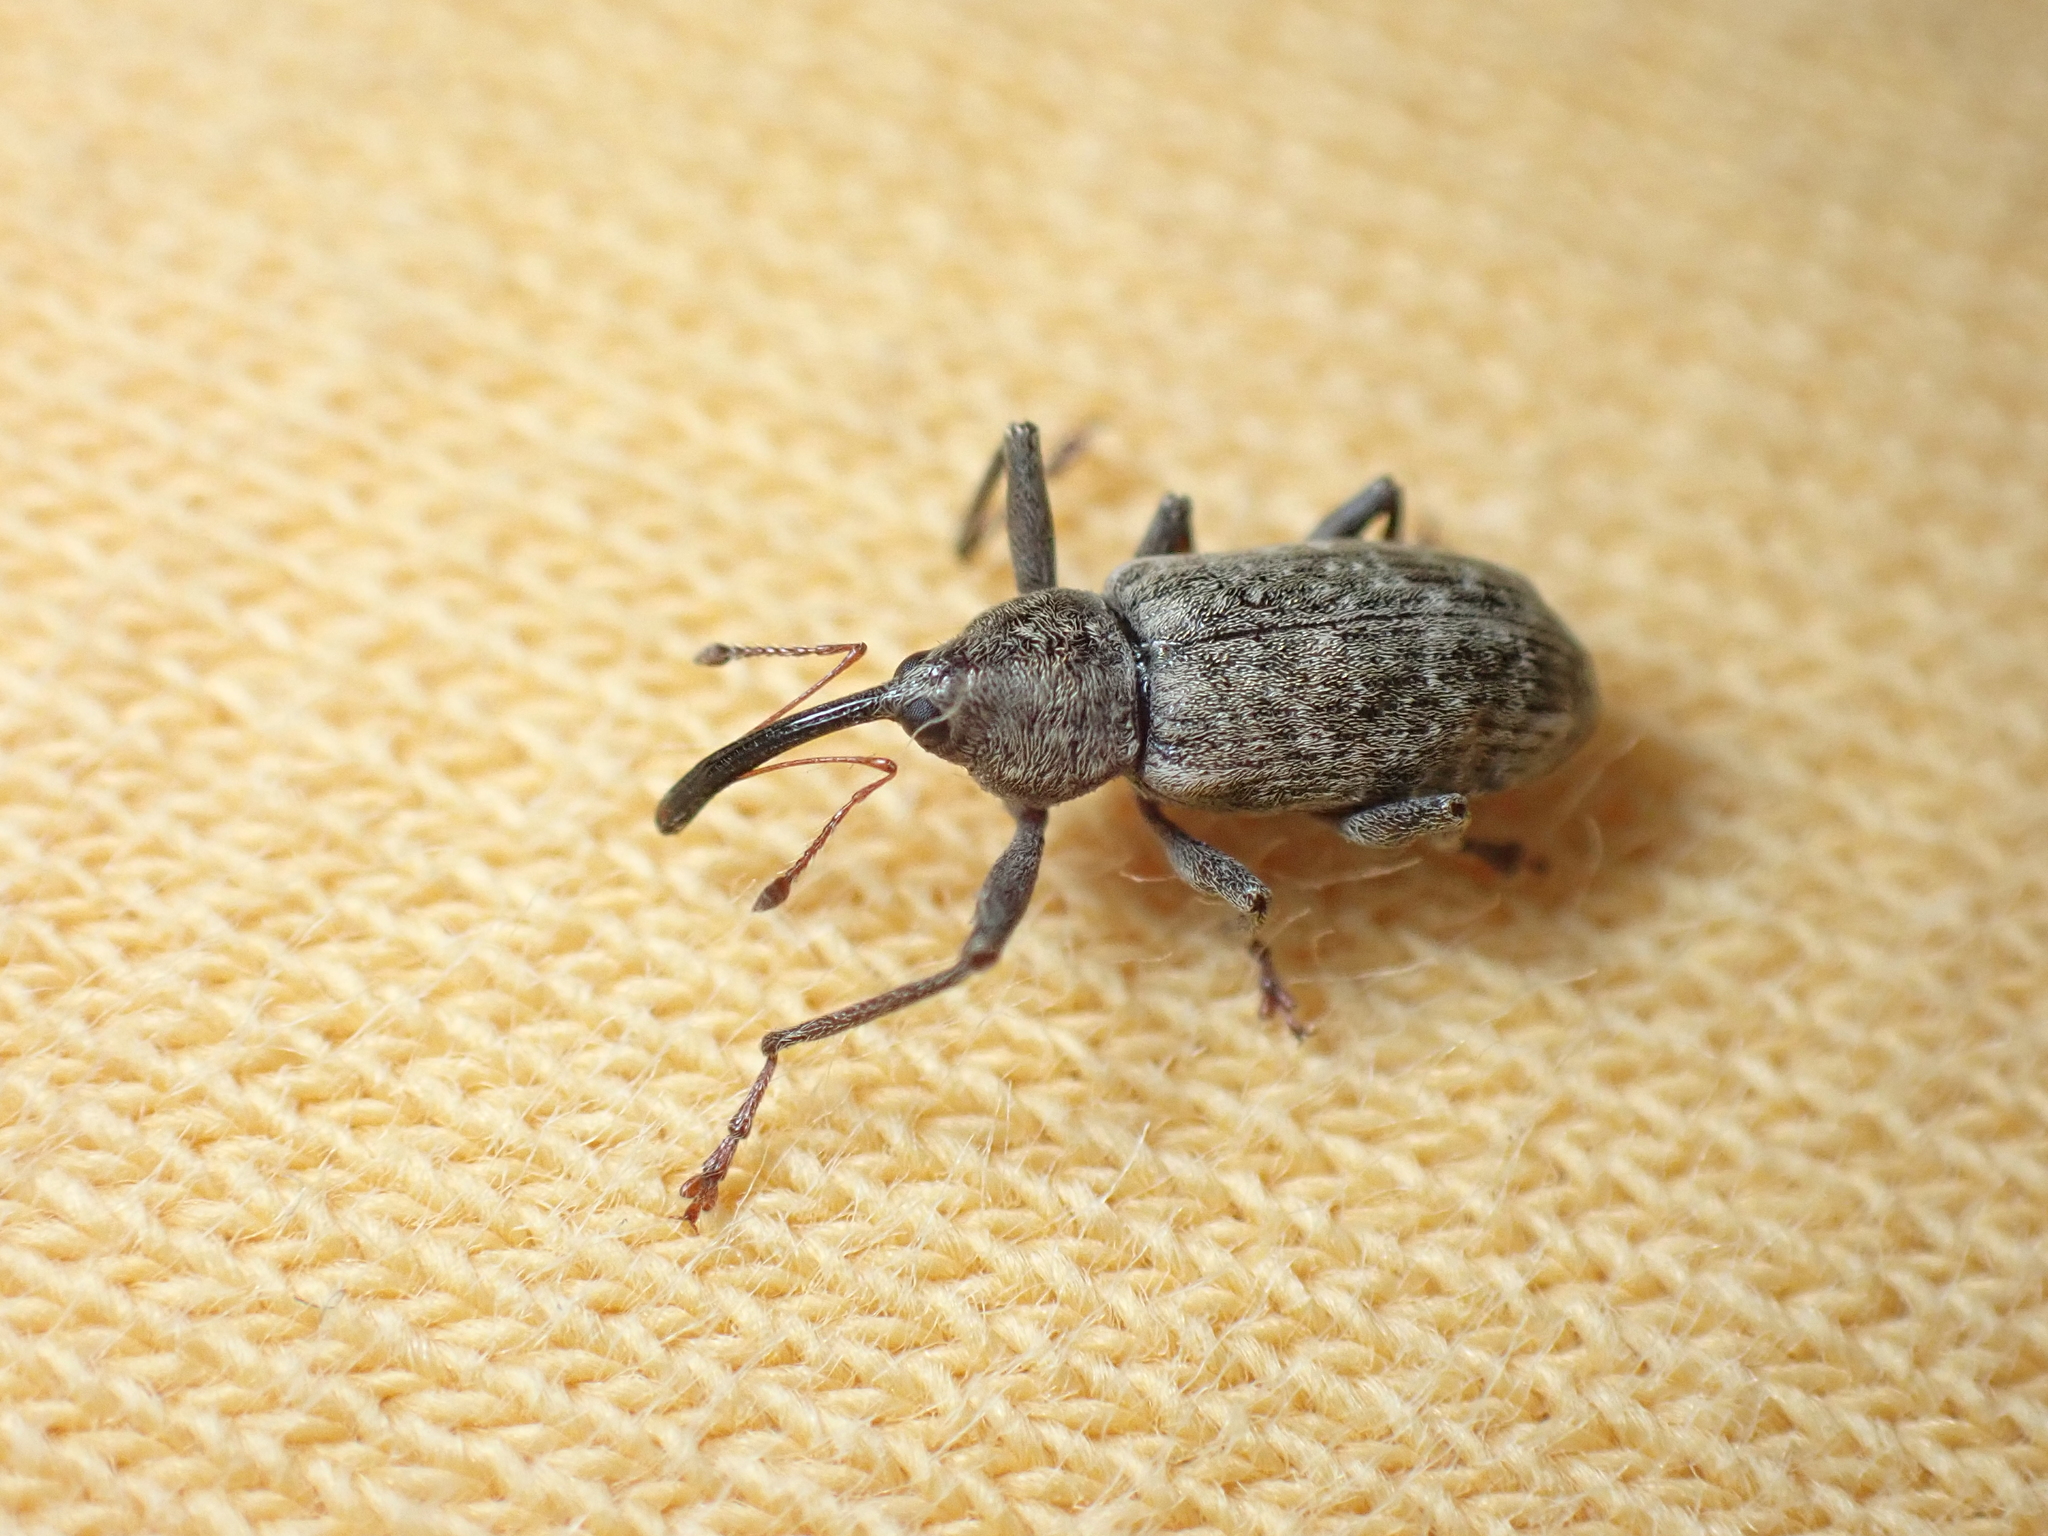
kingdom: Animalia
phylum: Arthropoda
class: Insecta
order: Coleoptera
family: Curculionidae
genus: Dorytomus
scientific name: Dorytomus longimanus
